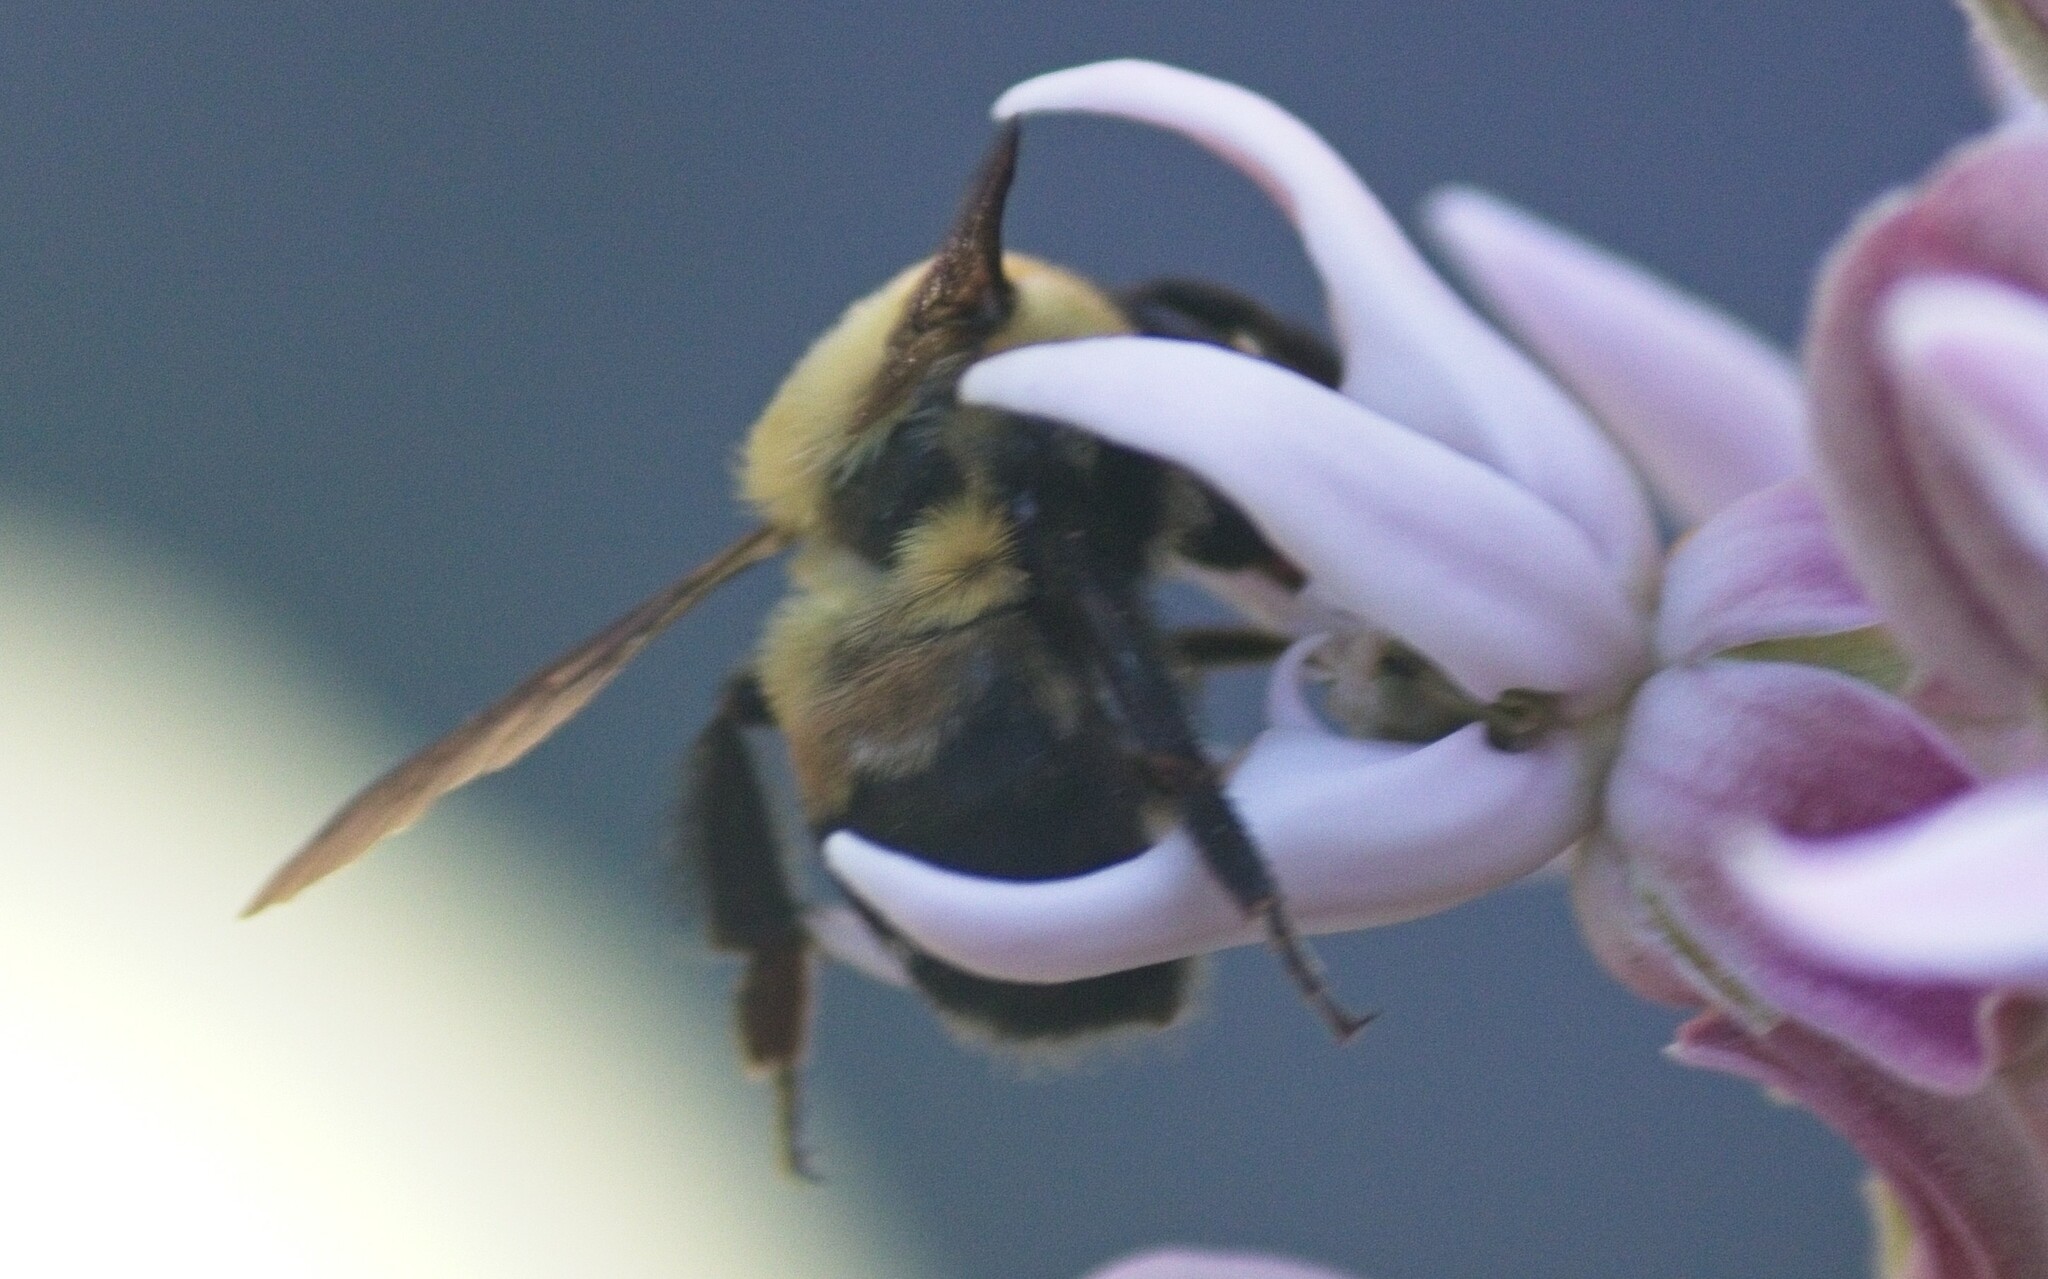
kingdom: Animalia
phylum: Arthropoda
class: Insecta
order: Hymenoptera
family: Apidae
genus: Bombus
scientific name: Bombus griseocollis
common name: Brown-belted bumble bee
